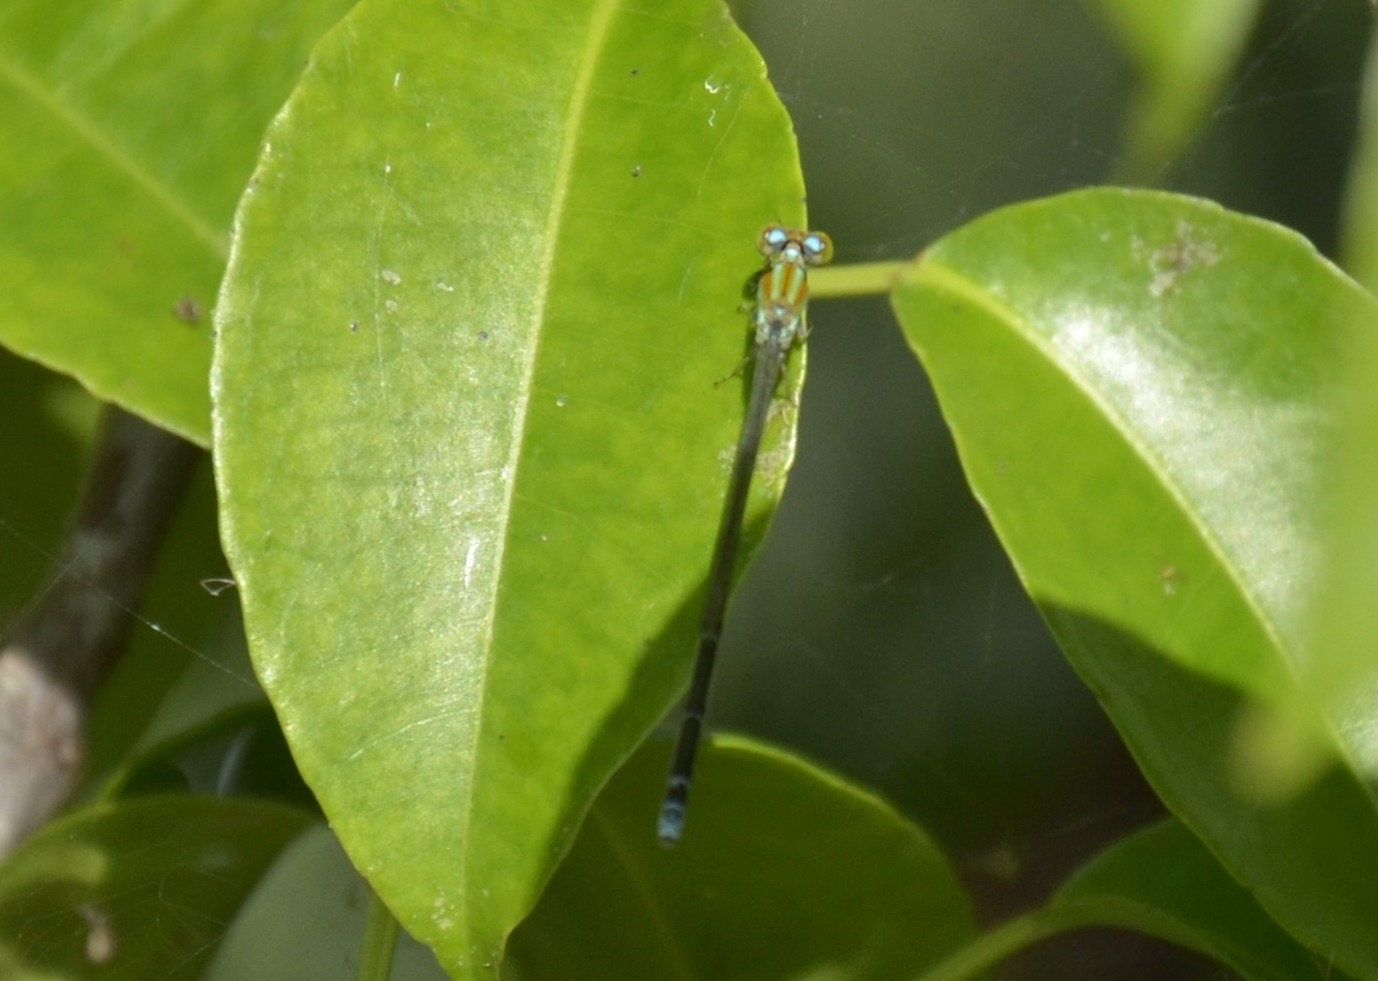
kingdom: Animalia
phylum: Arthropoda
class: Insecta
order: Odonata
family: Coenagrionidae
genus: Pseudagrion
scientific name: Pseudagrion microcephalum
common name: Blue riverdamsel
